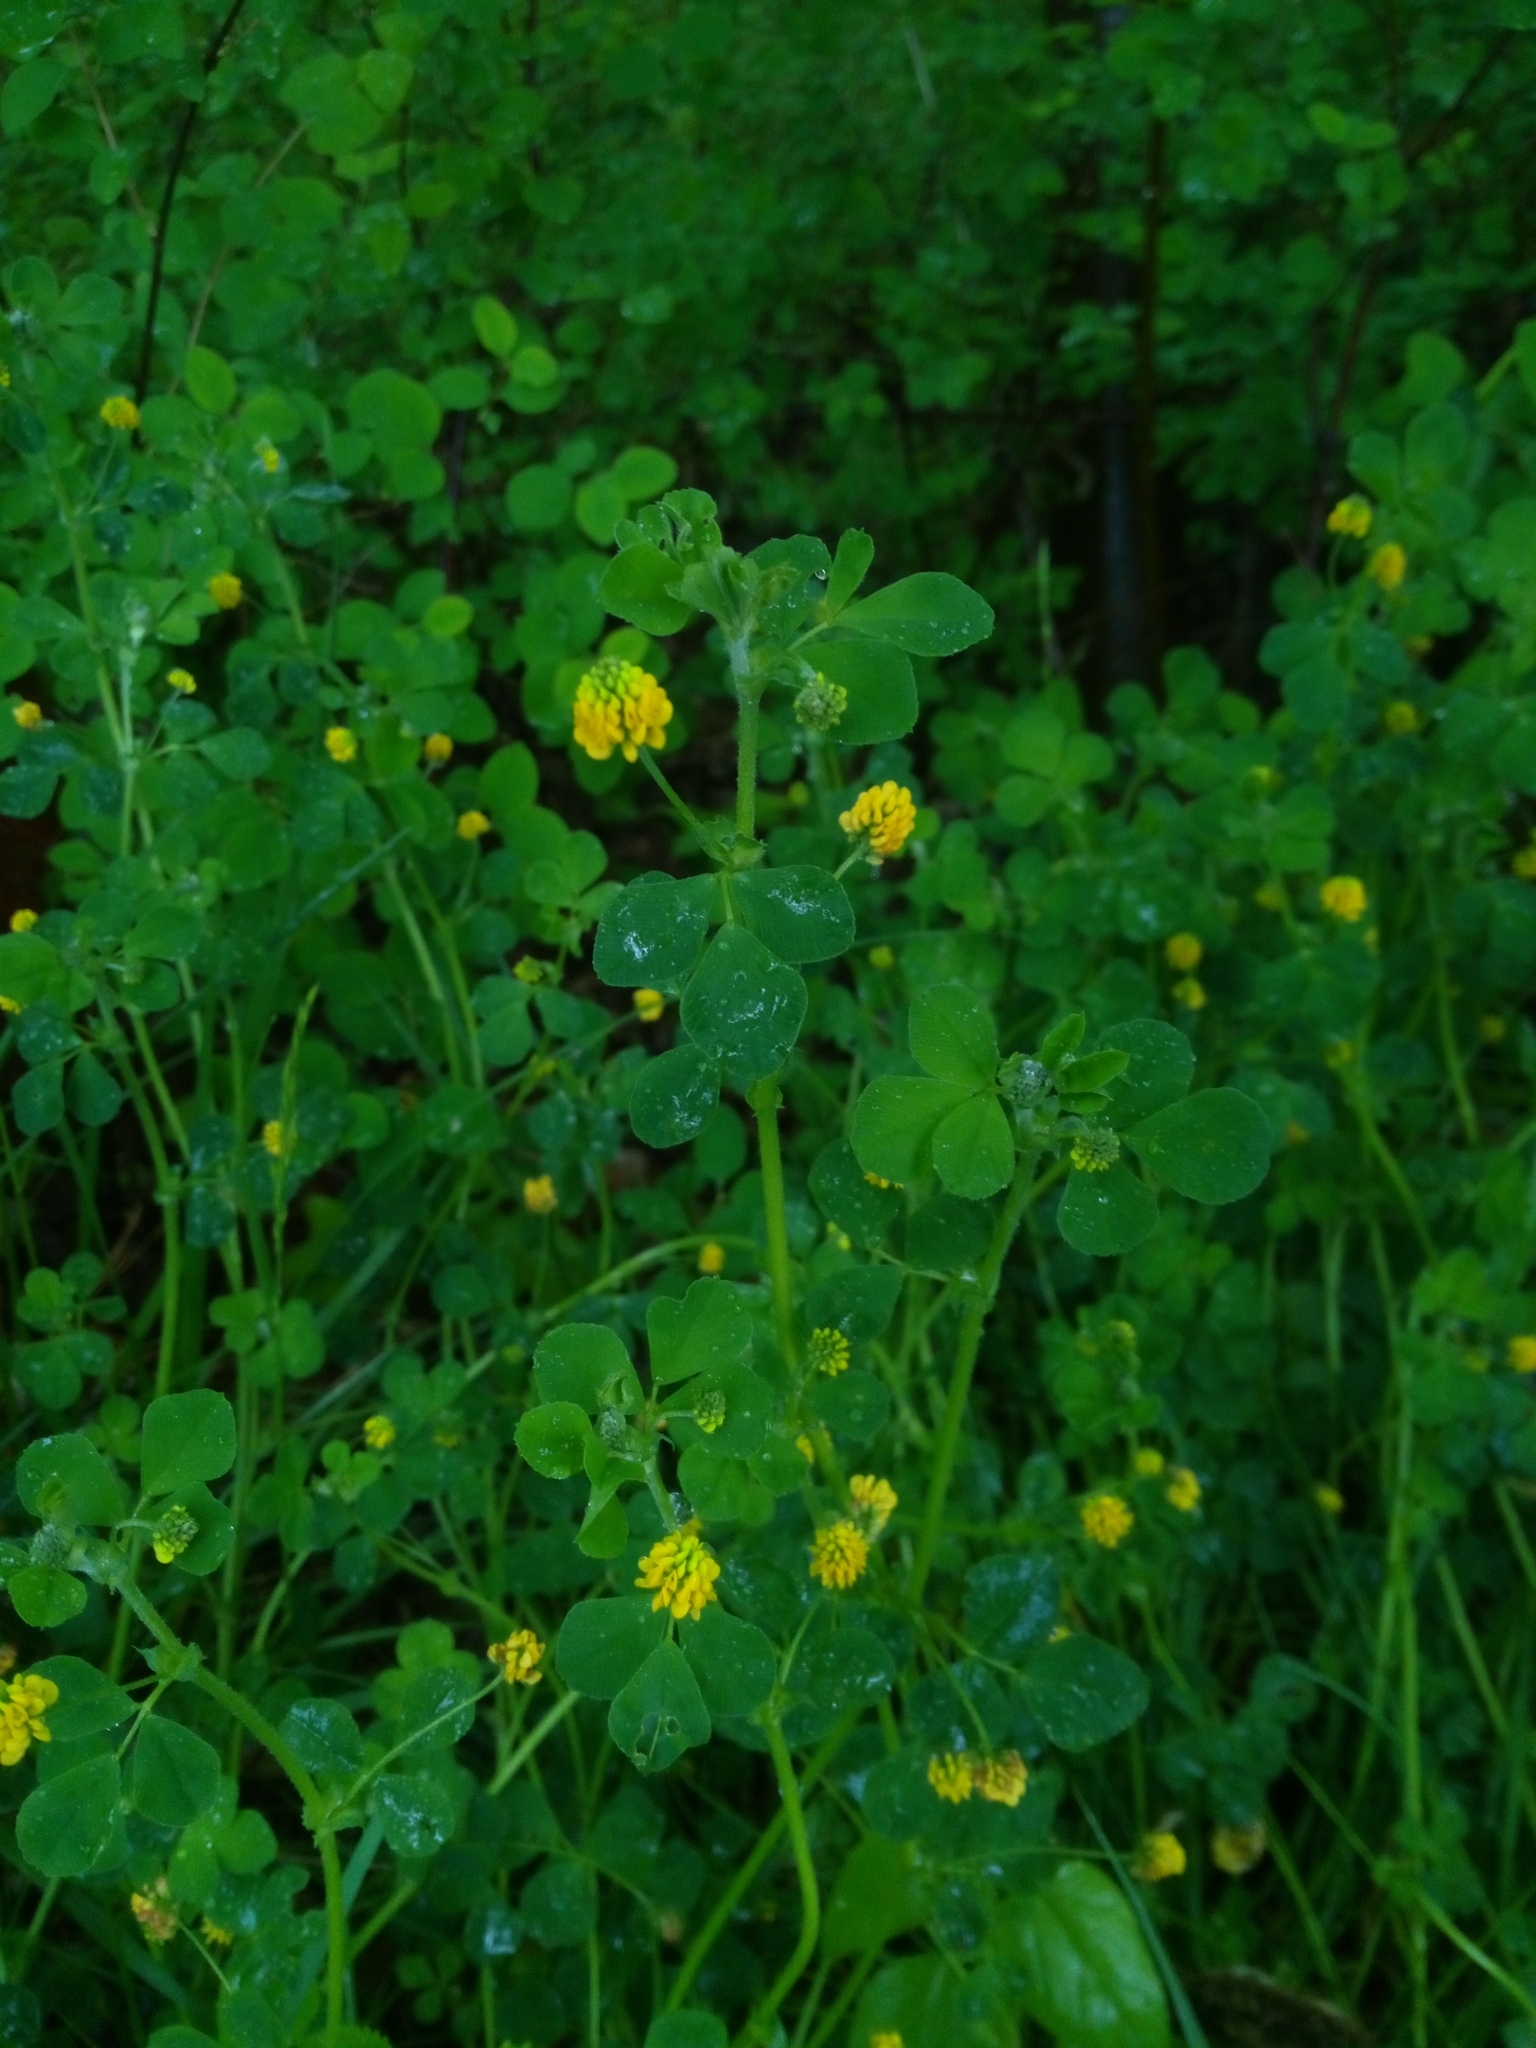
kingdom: Plantae
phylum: Tracheophyta
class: Magnoliopsida
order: Fabales
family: Fabaceae
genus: Medicago
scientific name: Medicago lupulina
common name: Black medick
